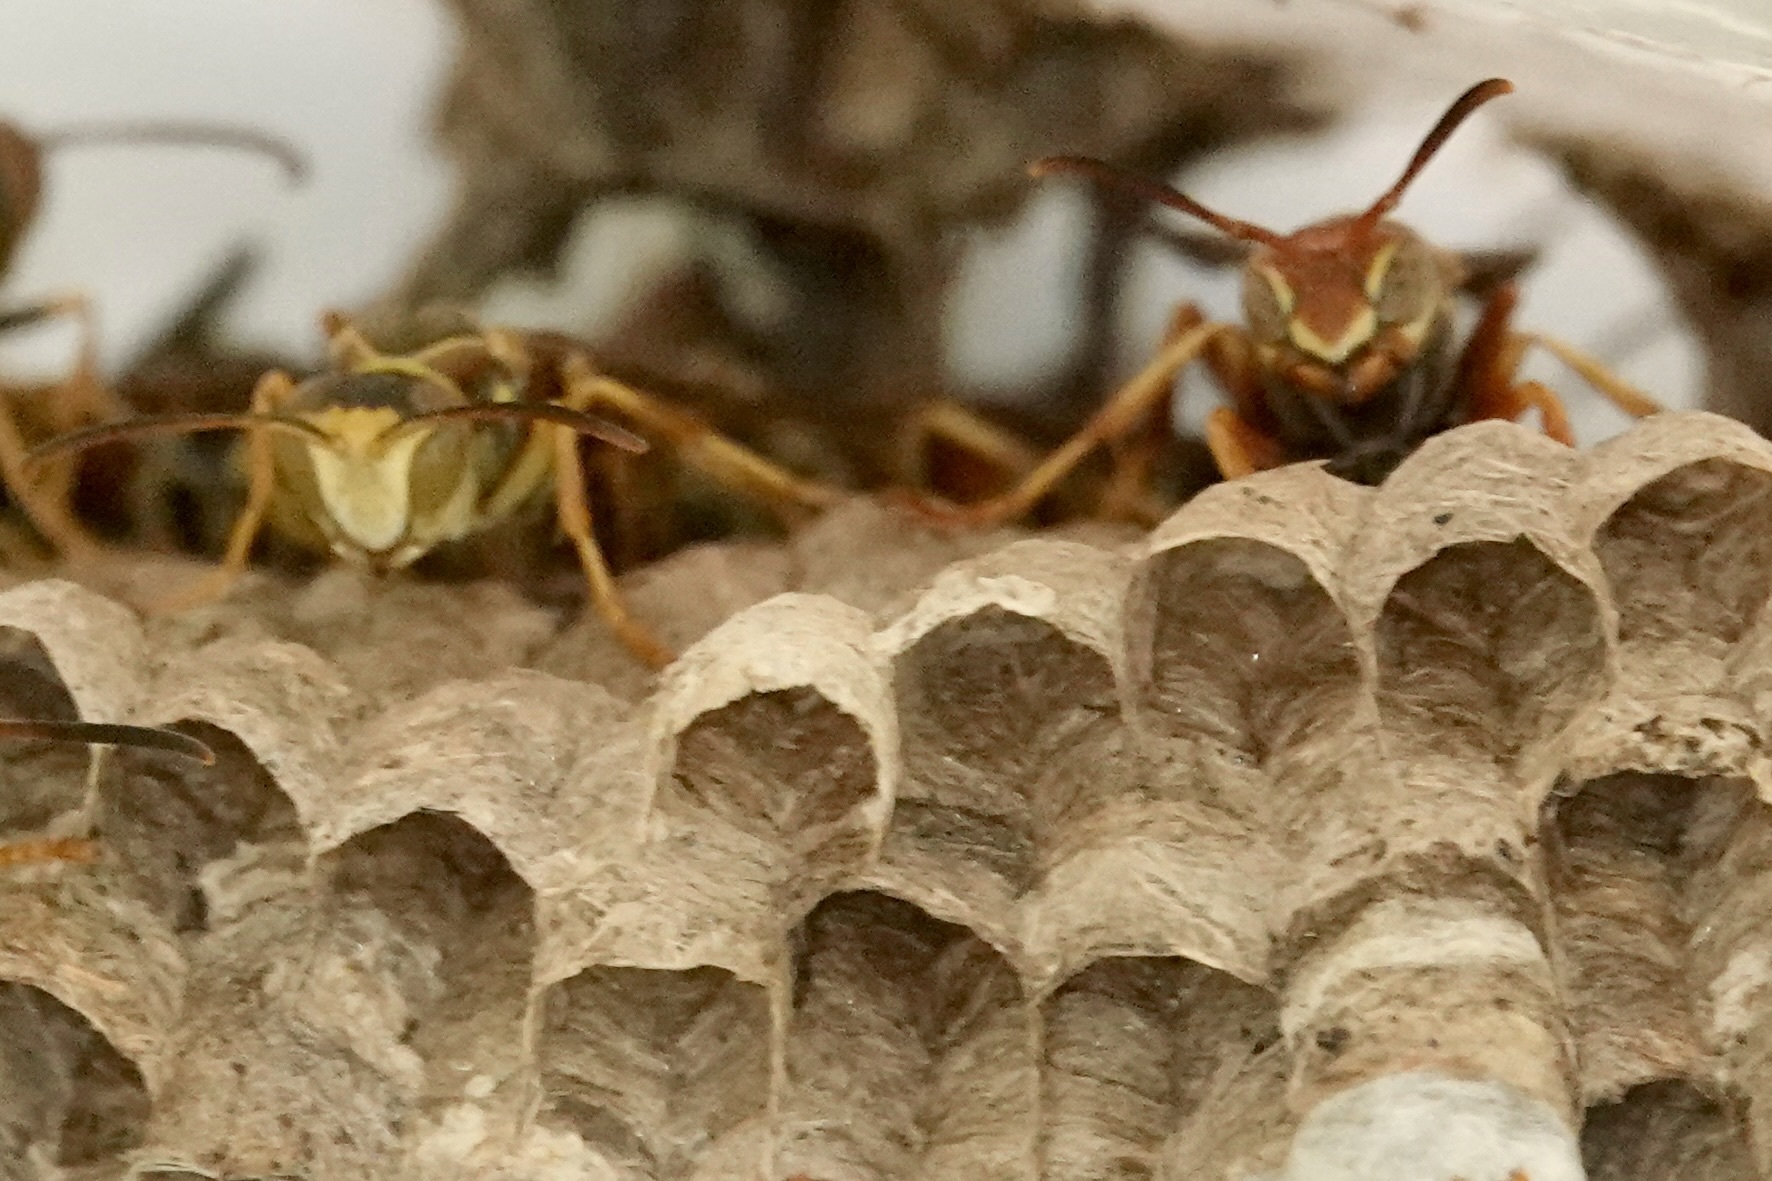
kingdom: Animalia
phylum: Arthropoda
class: Insecta
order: Hymenoptera
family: Eumenidae
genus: Polistes
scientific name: Polistes dorsalis
